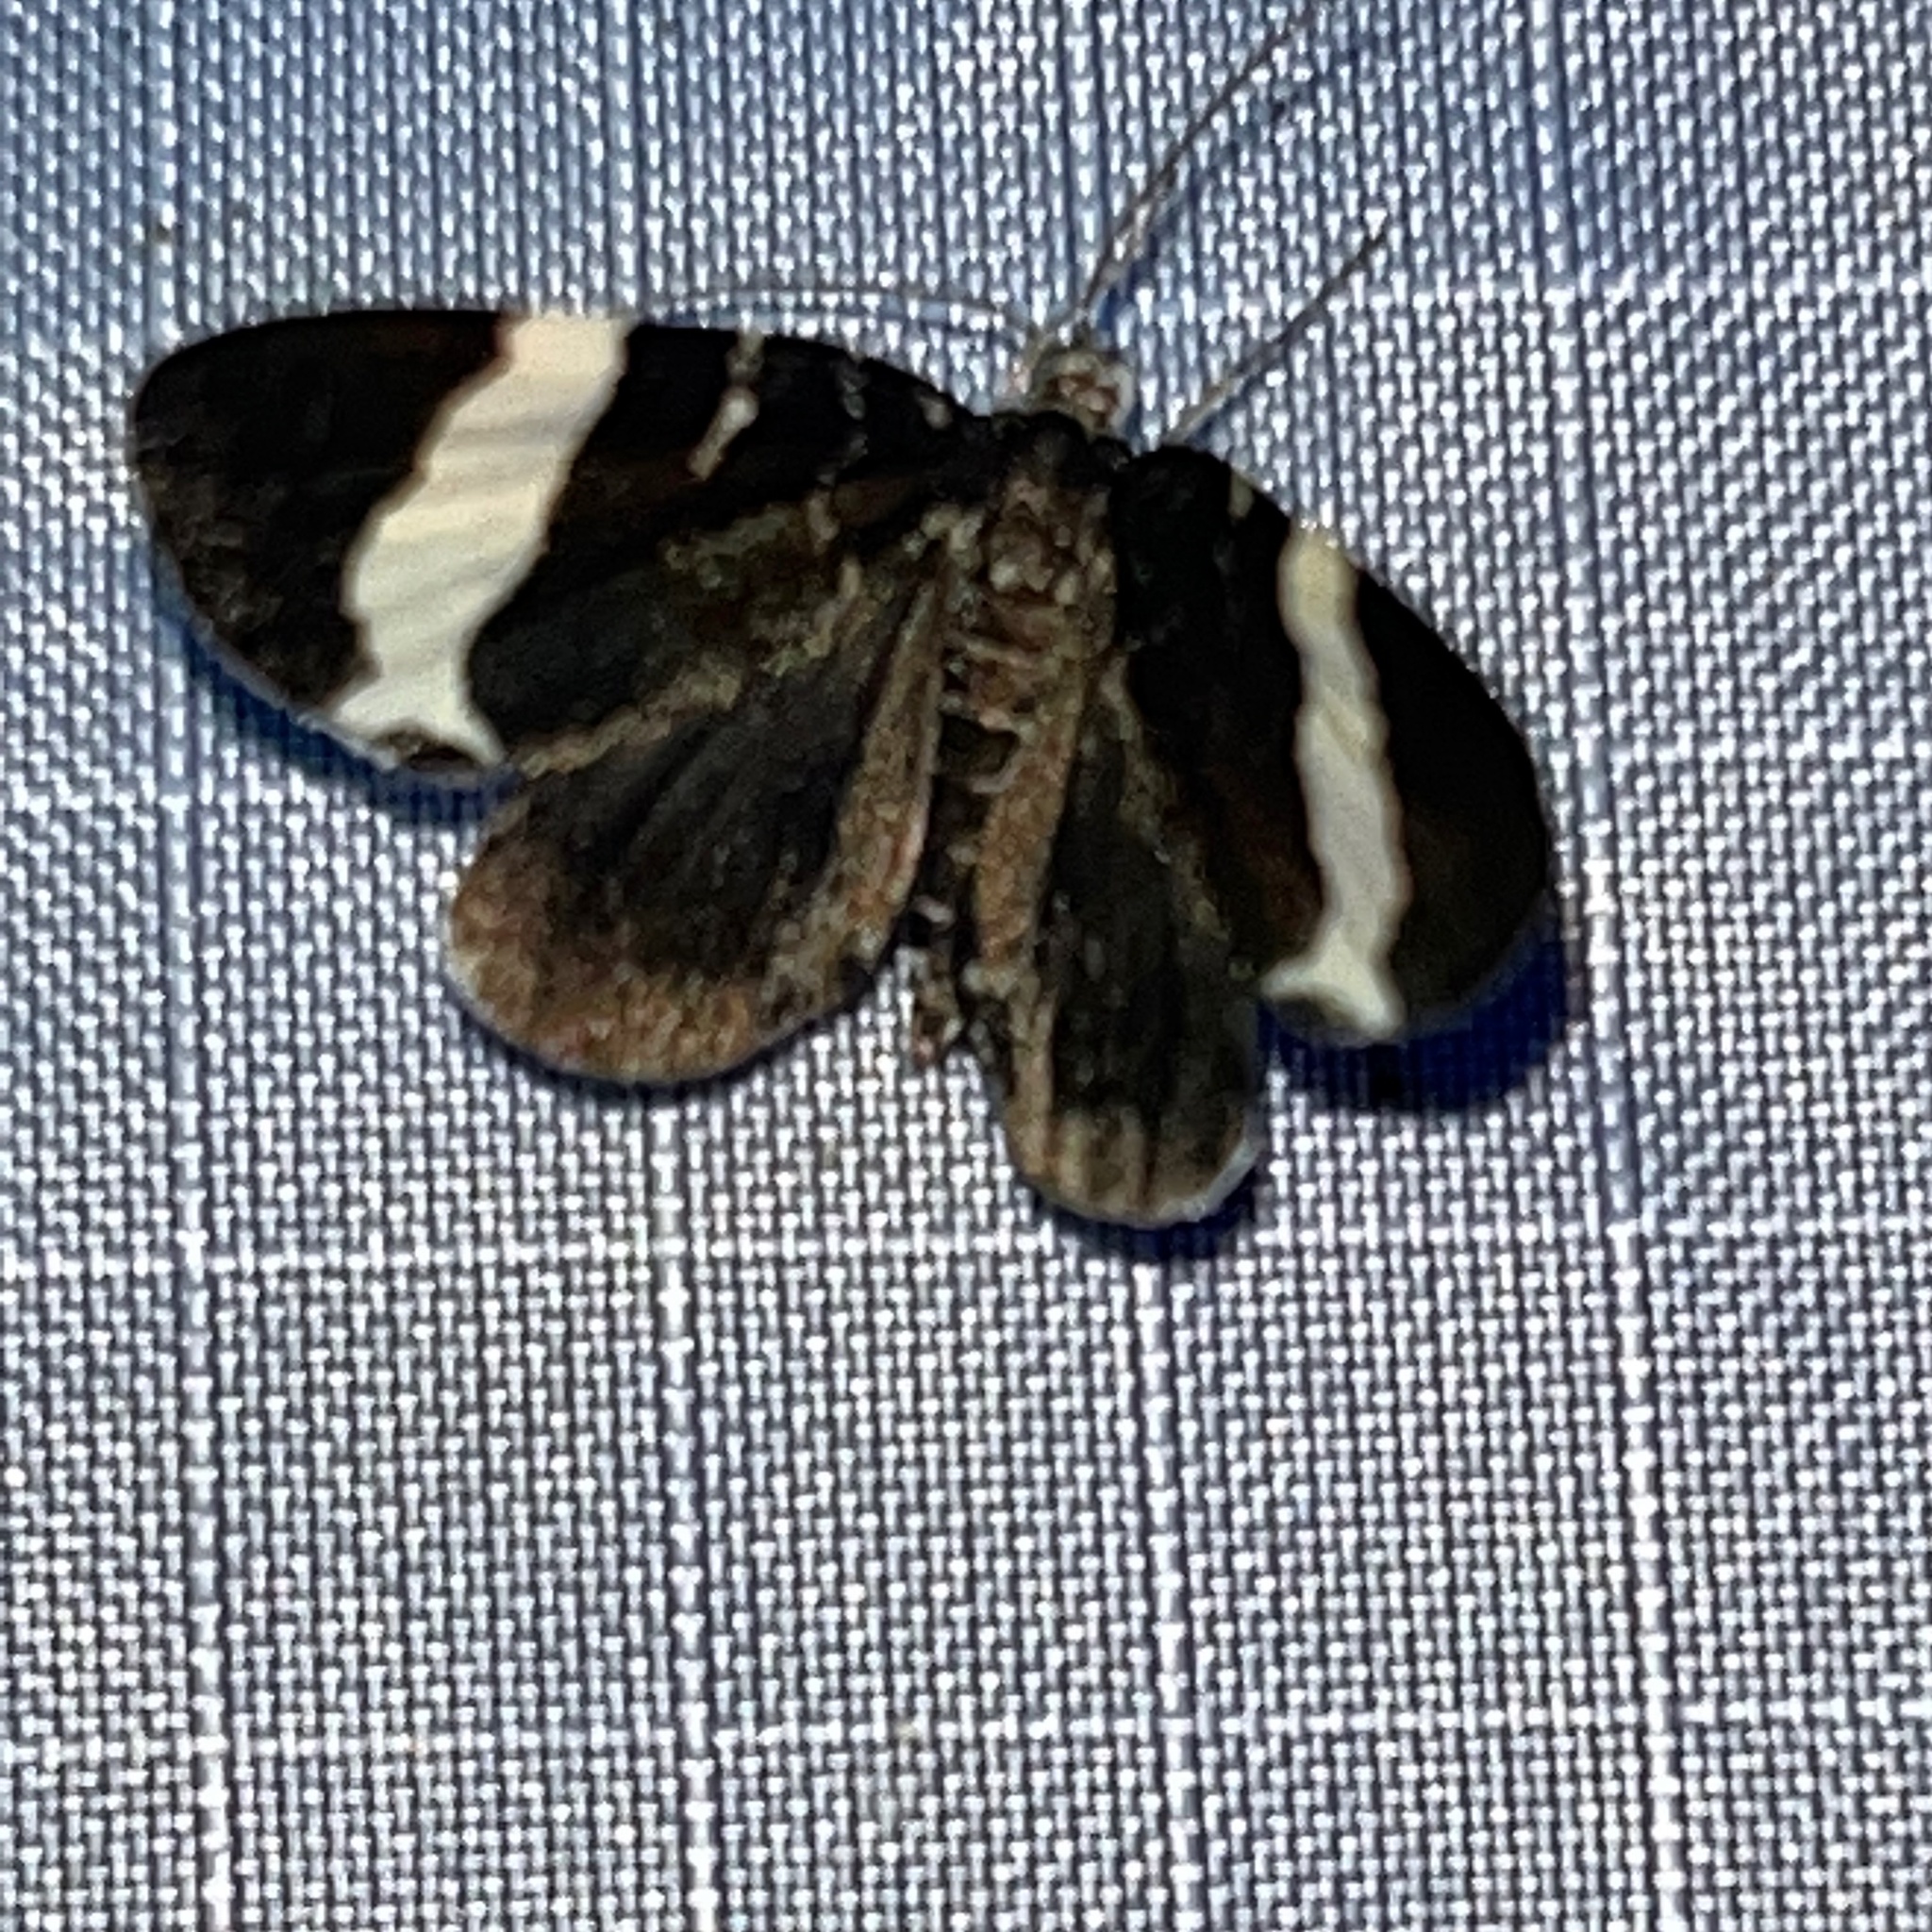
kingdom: Animalia
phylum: Arthropoda
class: Insecta
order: Lepidoptera
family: Geometridae
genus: Trichodezia
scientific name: Trichodezia albovittata
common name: White striped black
